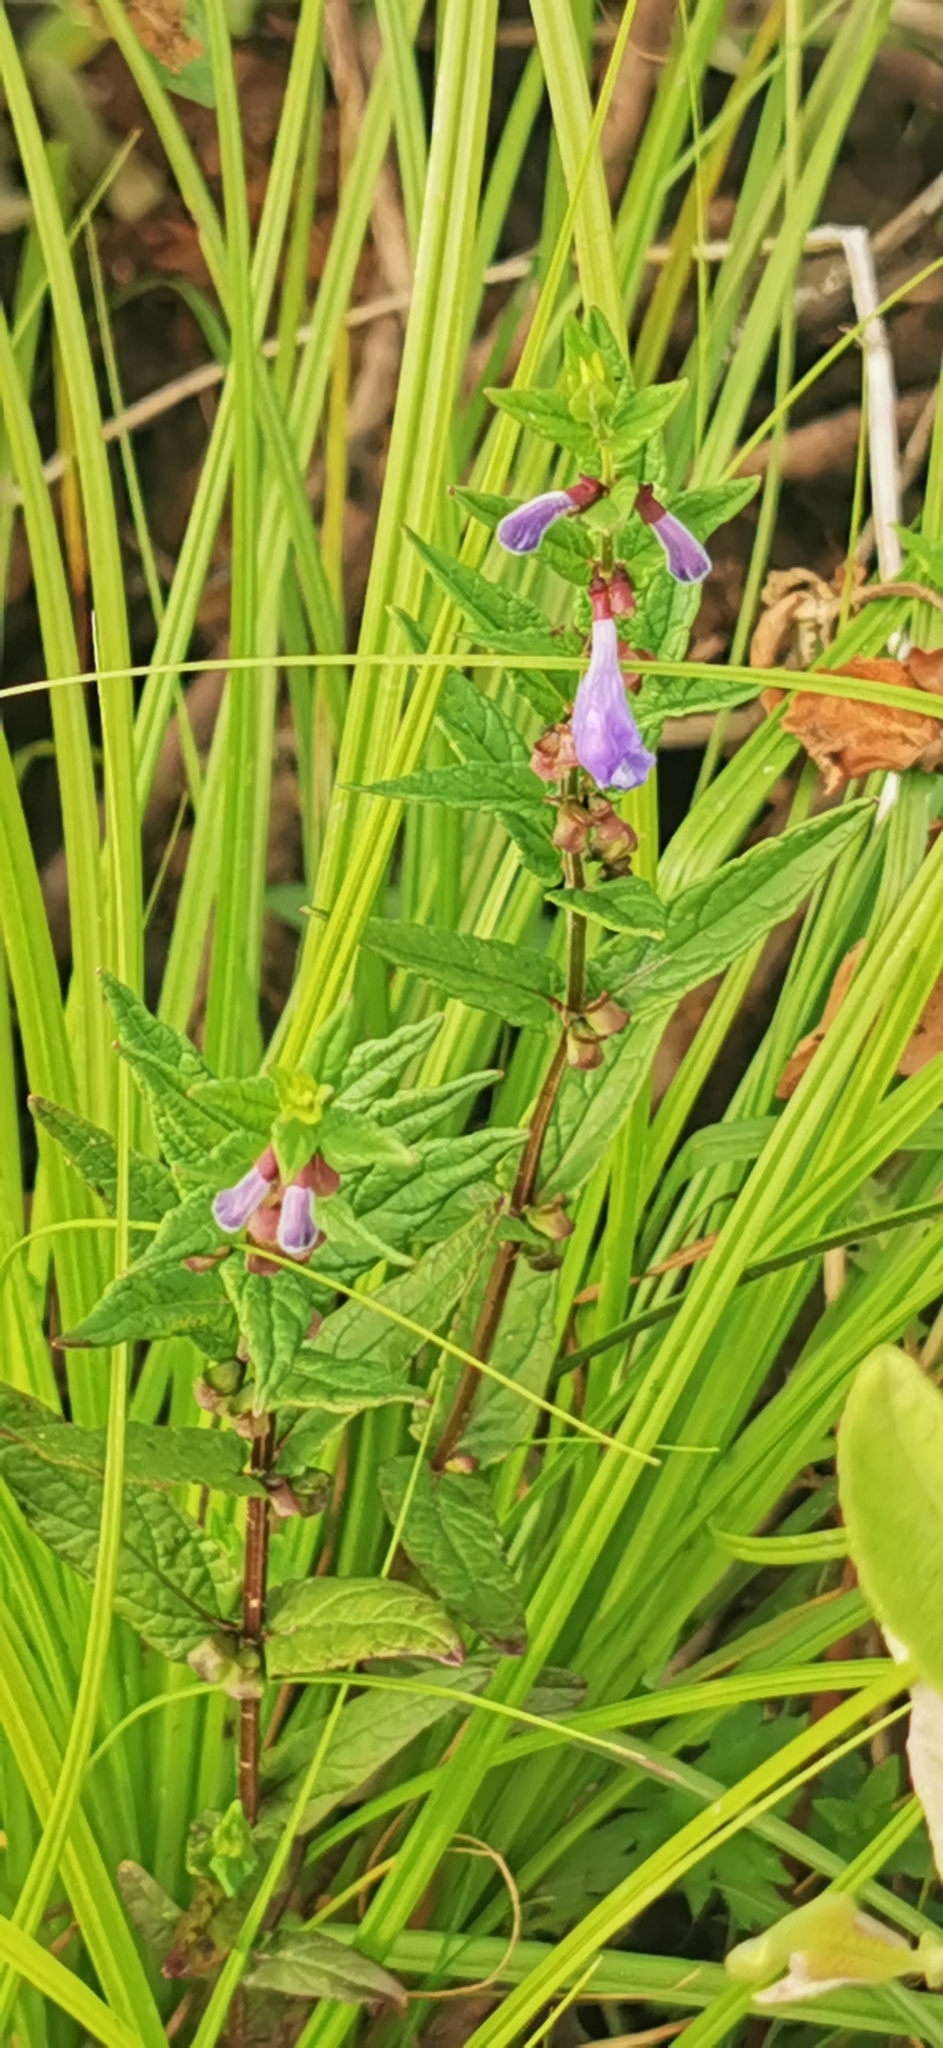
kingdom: Plantae
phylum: Tracheophyta
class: Magnoliopsida
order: Lamiales
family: Lamiaceae
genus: Scutellaria
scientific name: Scutellaria galericulata
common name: Skullcap
